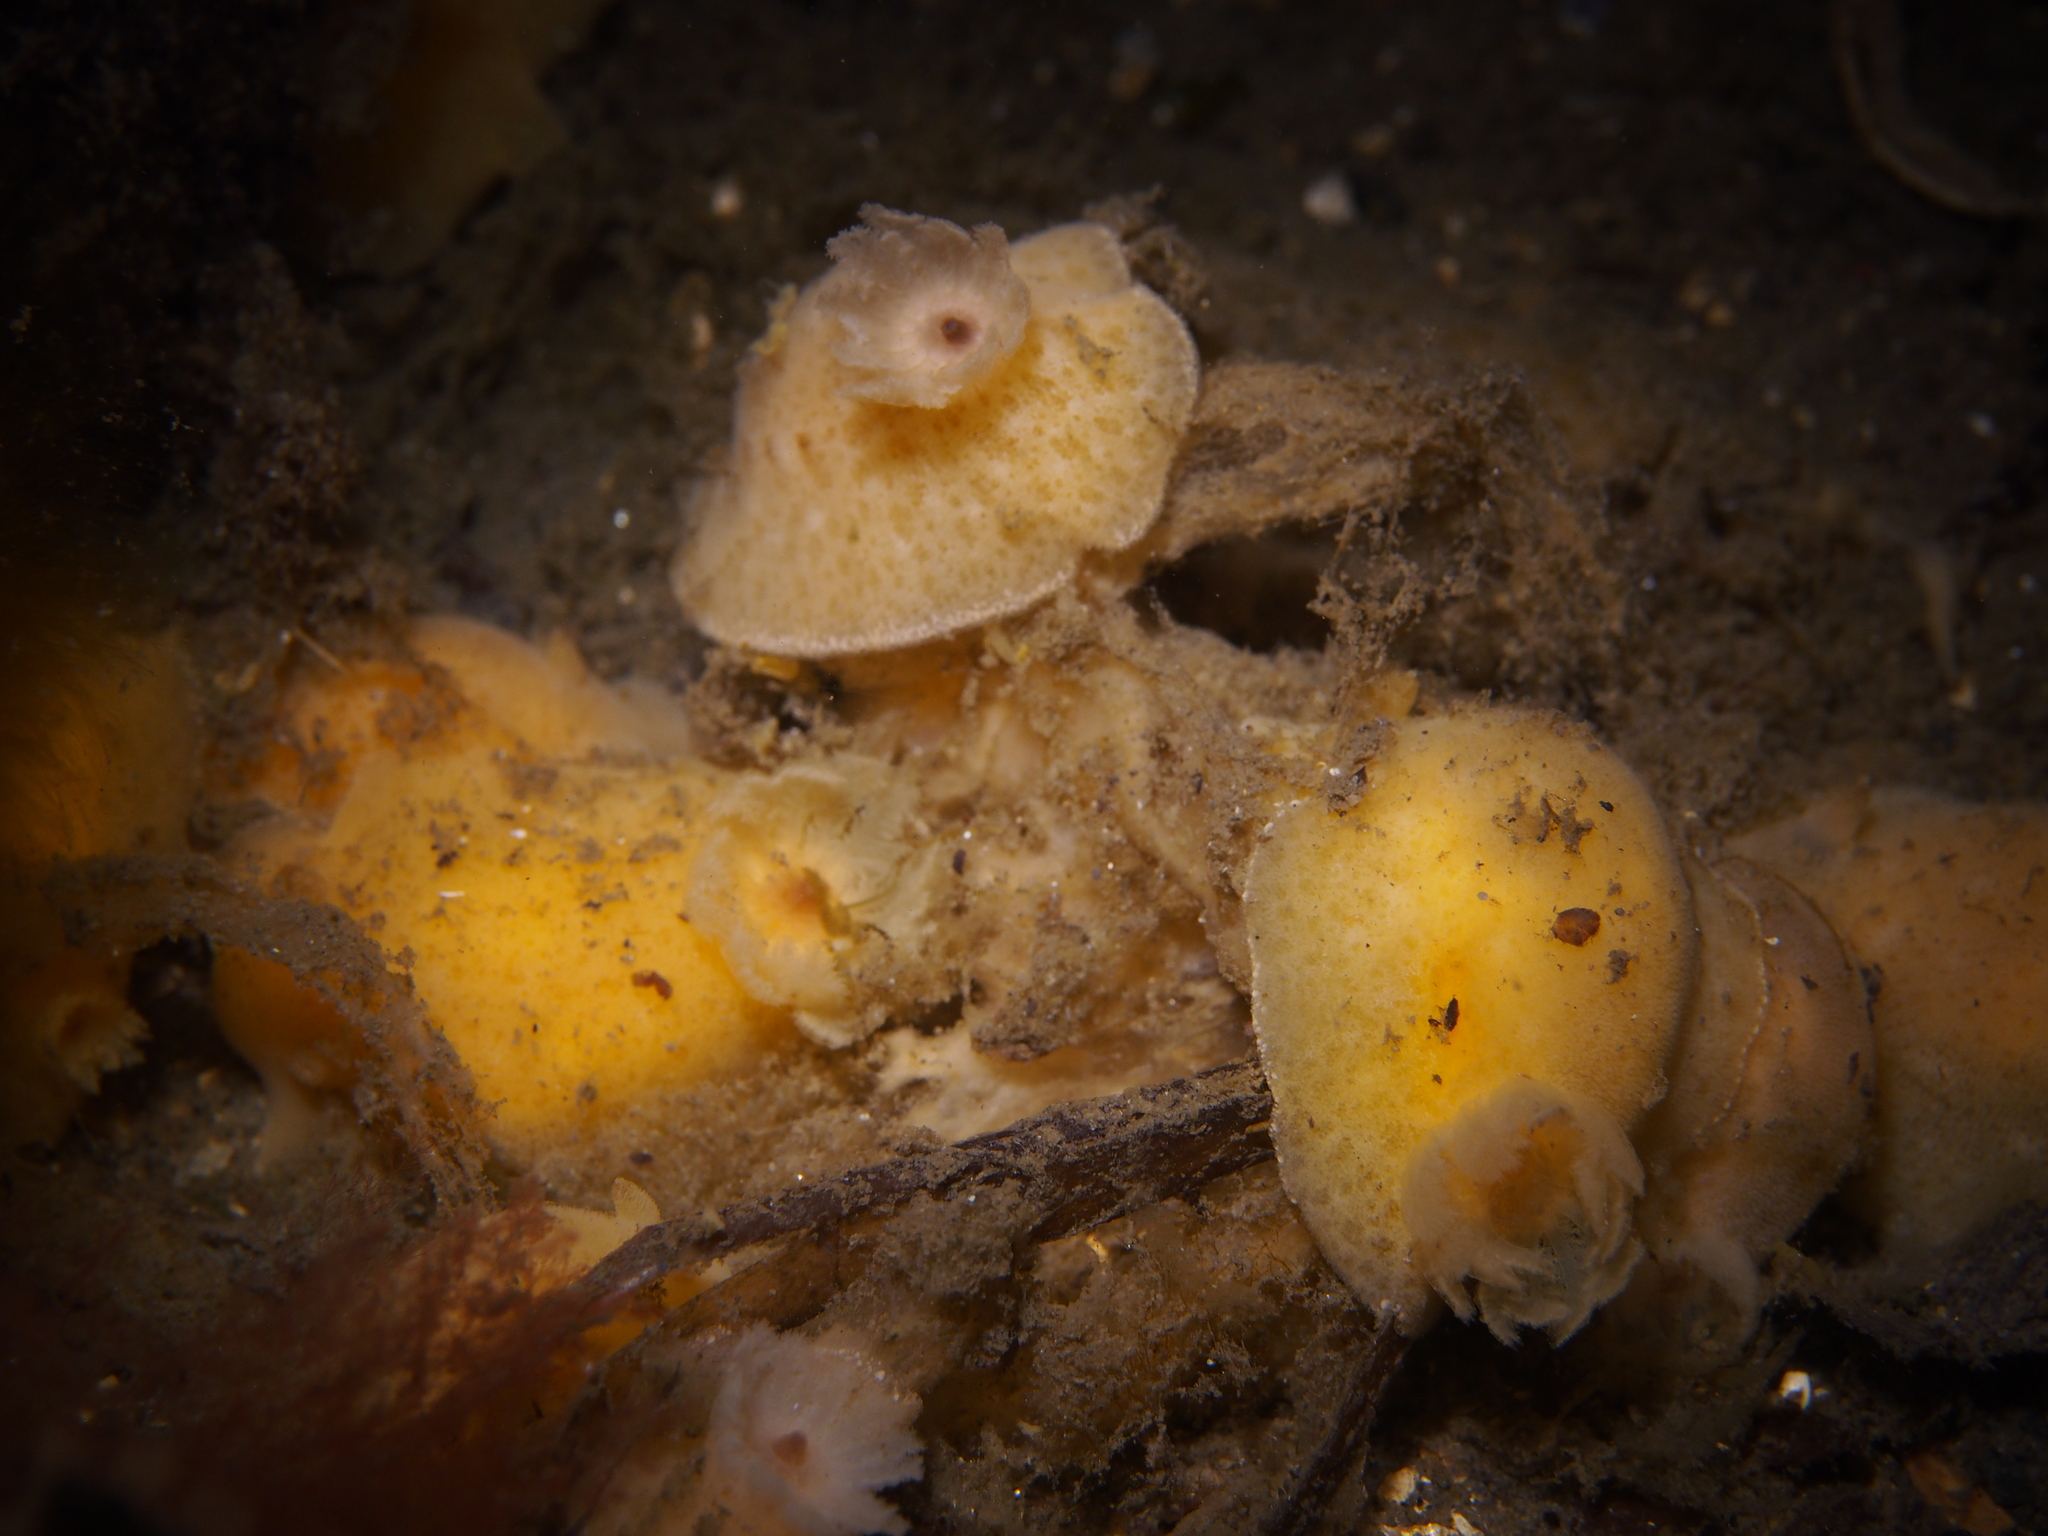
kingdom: Animalia
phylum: Mollusca
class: Gastropoda
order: Nudibranchia
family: Discodorididae
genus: Jorunna
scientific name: Jorunna tomentosa
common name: Grey sea slug
